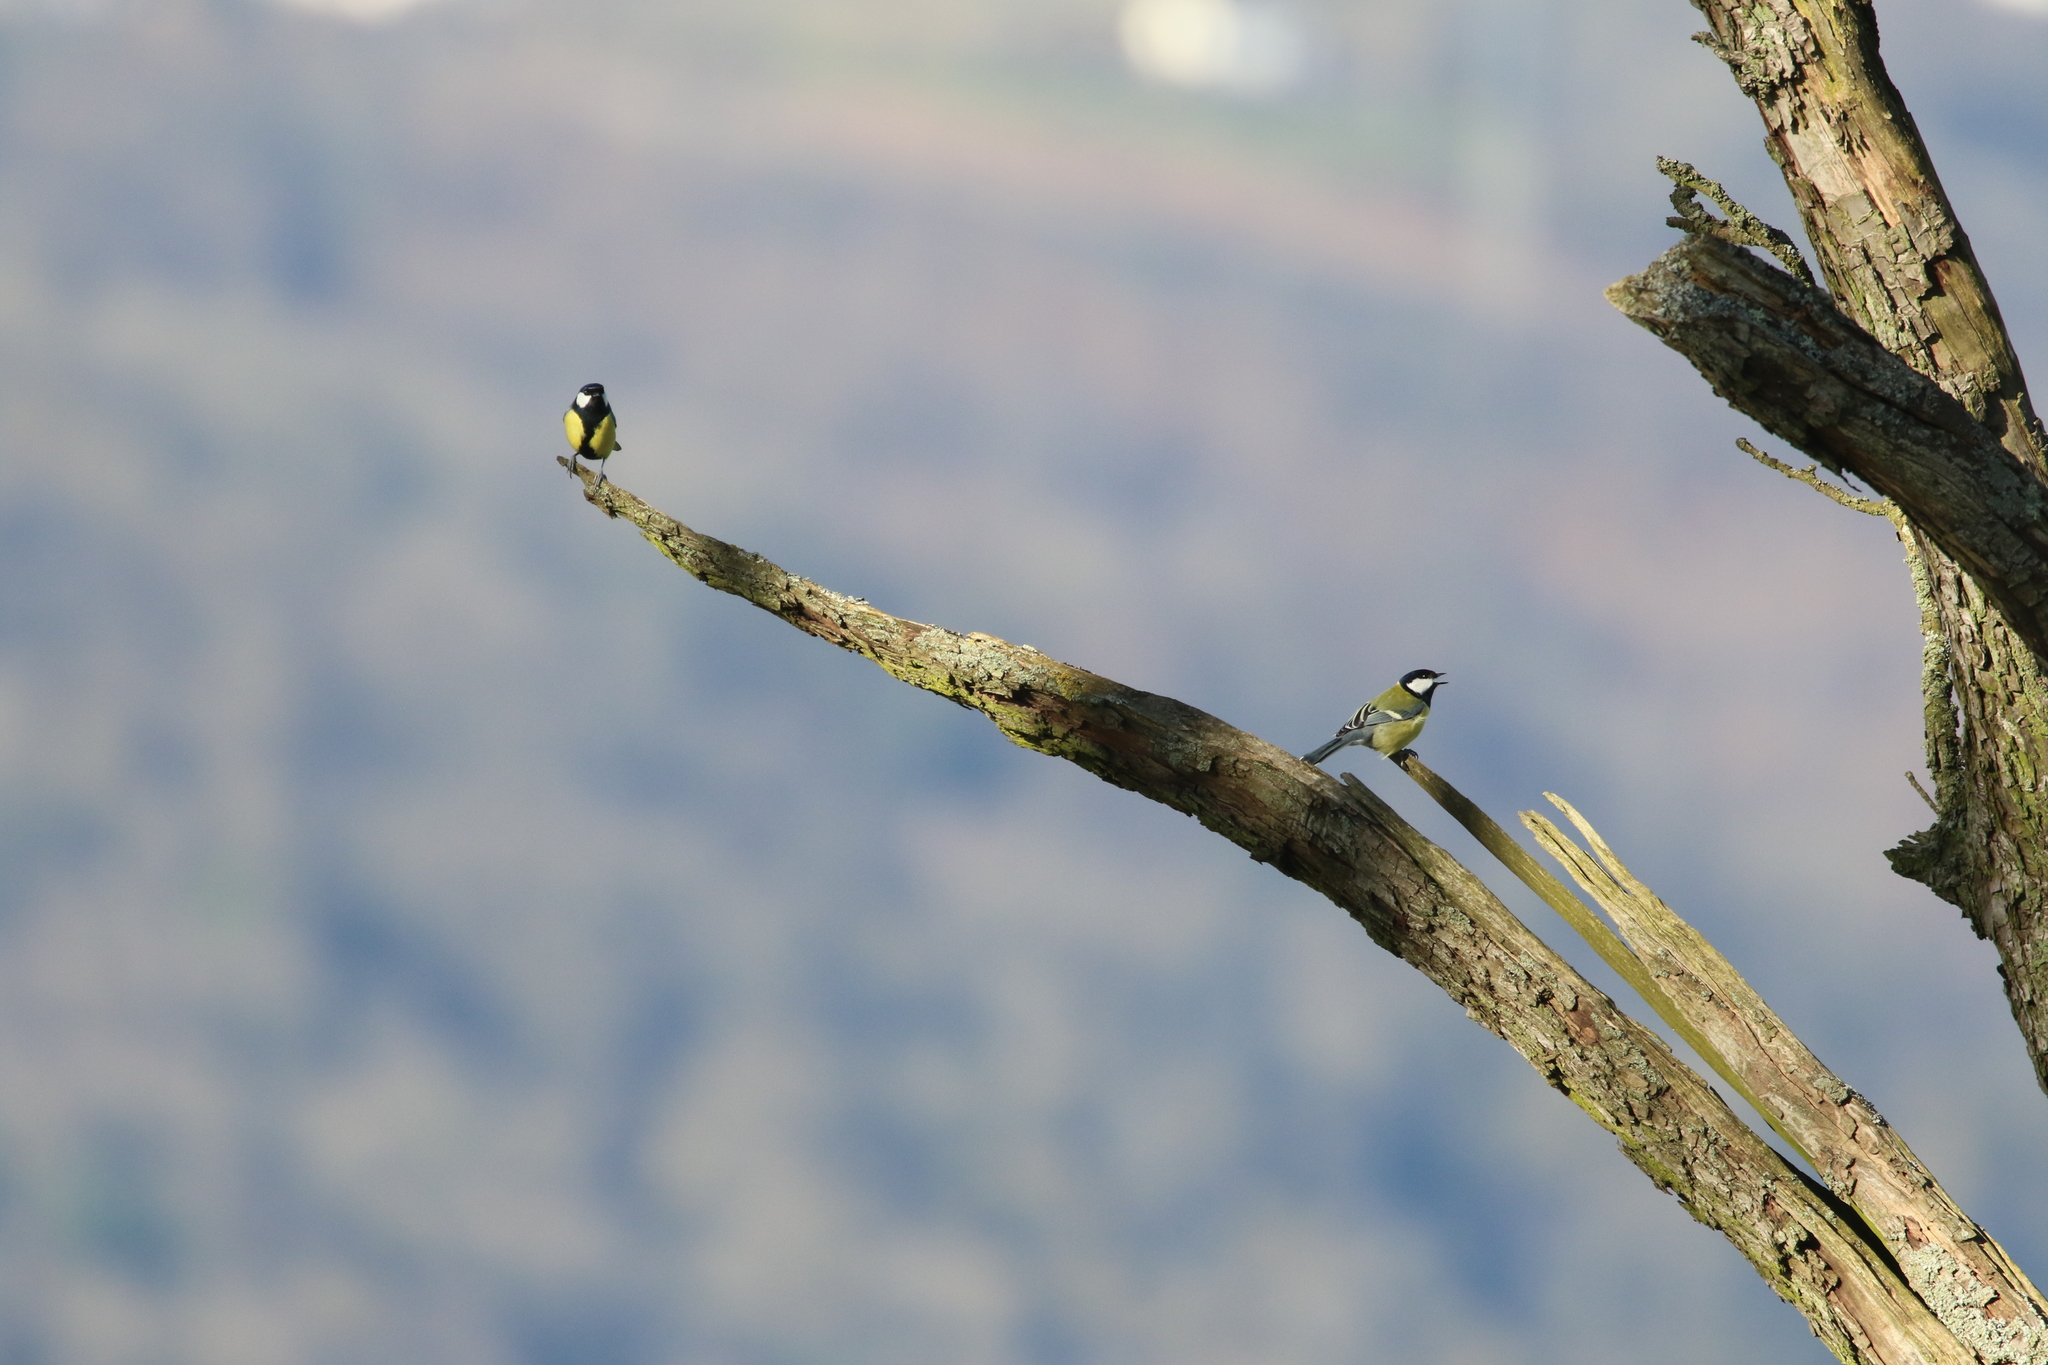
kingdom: Animalia
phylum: Chordata
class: Aves
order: Passeriformes
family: Paridae
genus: Parus
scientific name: Parus major
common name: Great tit
